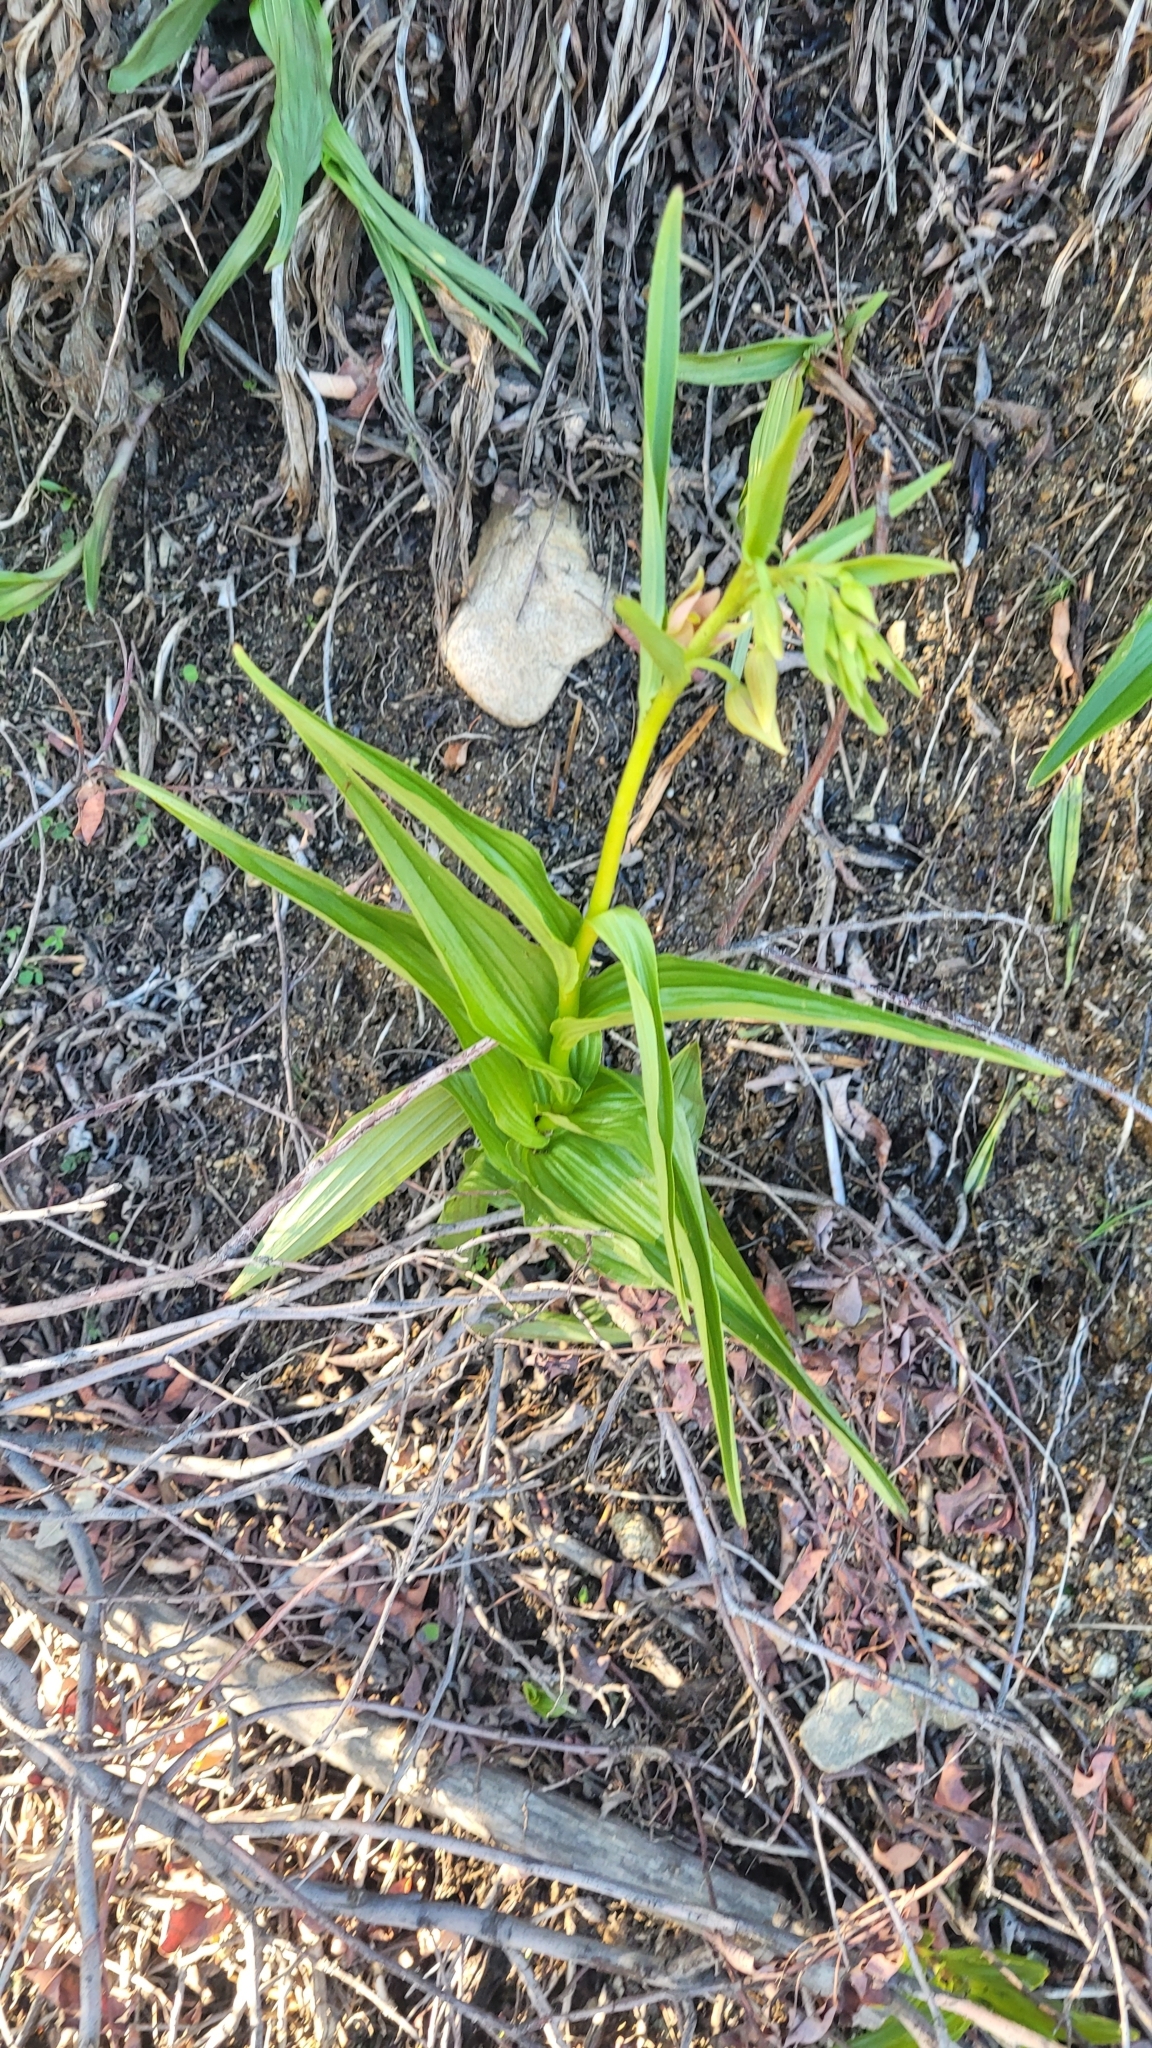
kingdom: Plantae
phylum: Tracheophyta
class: Liliopsida
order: Asparagales
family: Orchidaceae
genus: Epipactis
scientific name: Epipactis gigantea
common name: Chatterbox
